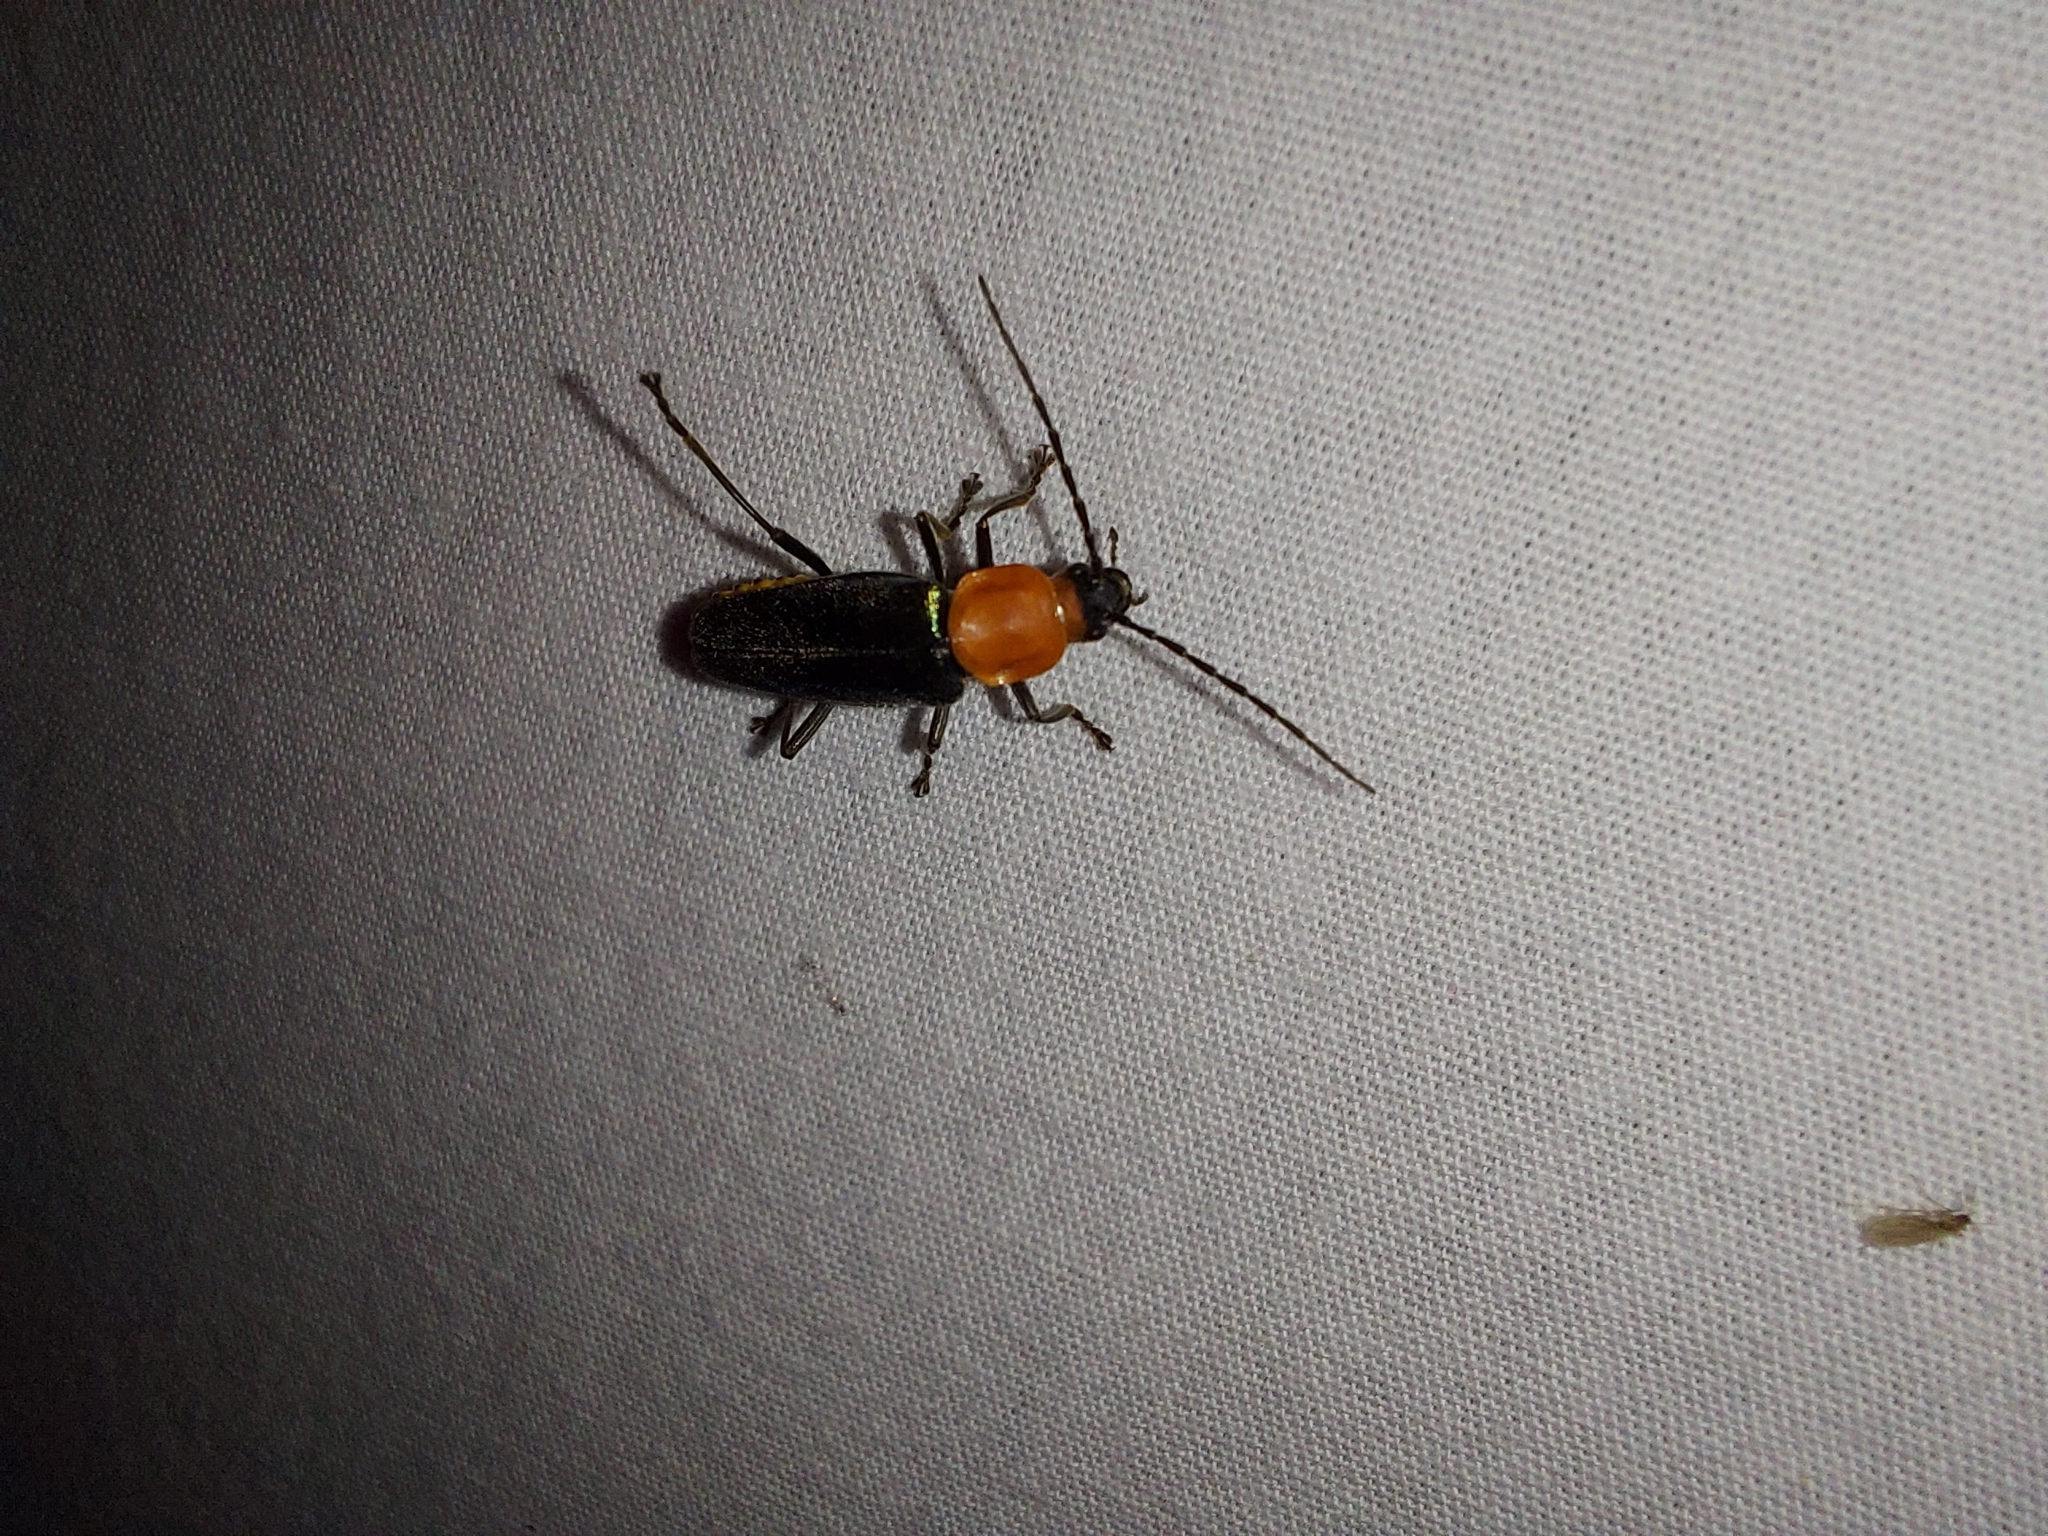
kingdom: Animalia
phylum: Arthropoda
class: Insecta
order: Coleoptera
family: Cantharidae
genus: Chauliognathus
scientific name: Chauliognathus
